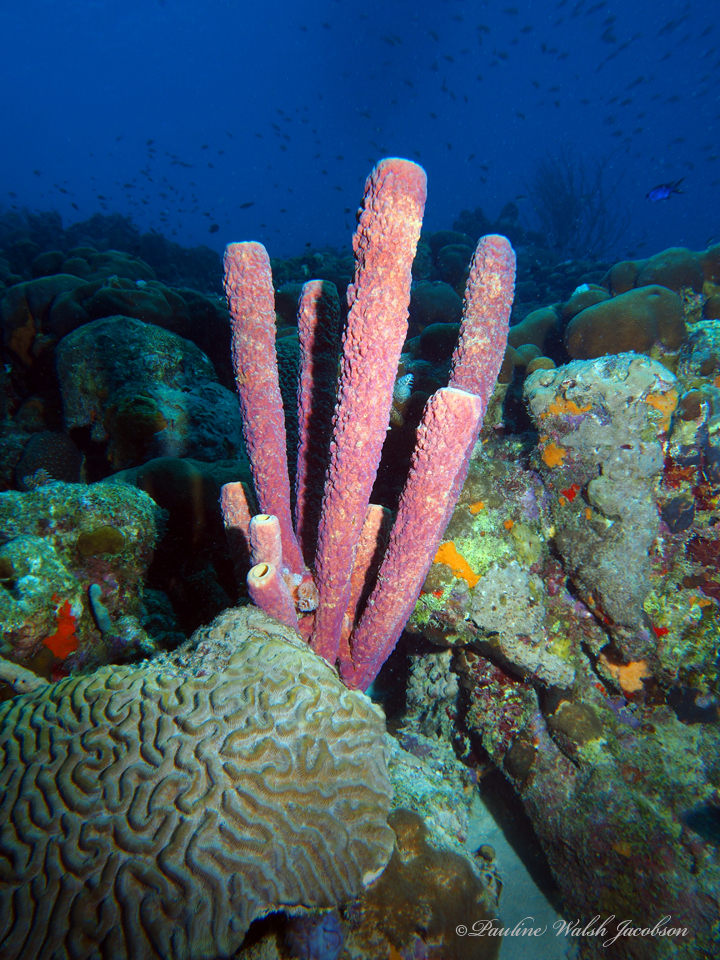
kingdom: Animalia
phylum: Porifera
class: Demospongiae
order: Verongiida
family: Aplysinidae
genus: Aplysina
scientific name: Aplysina archeri
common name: Stove-pipe sponge
